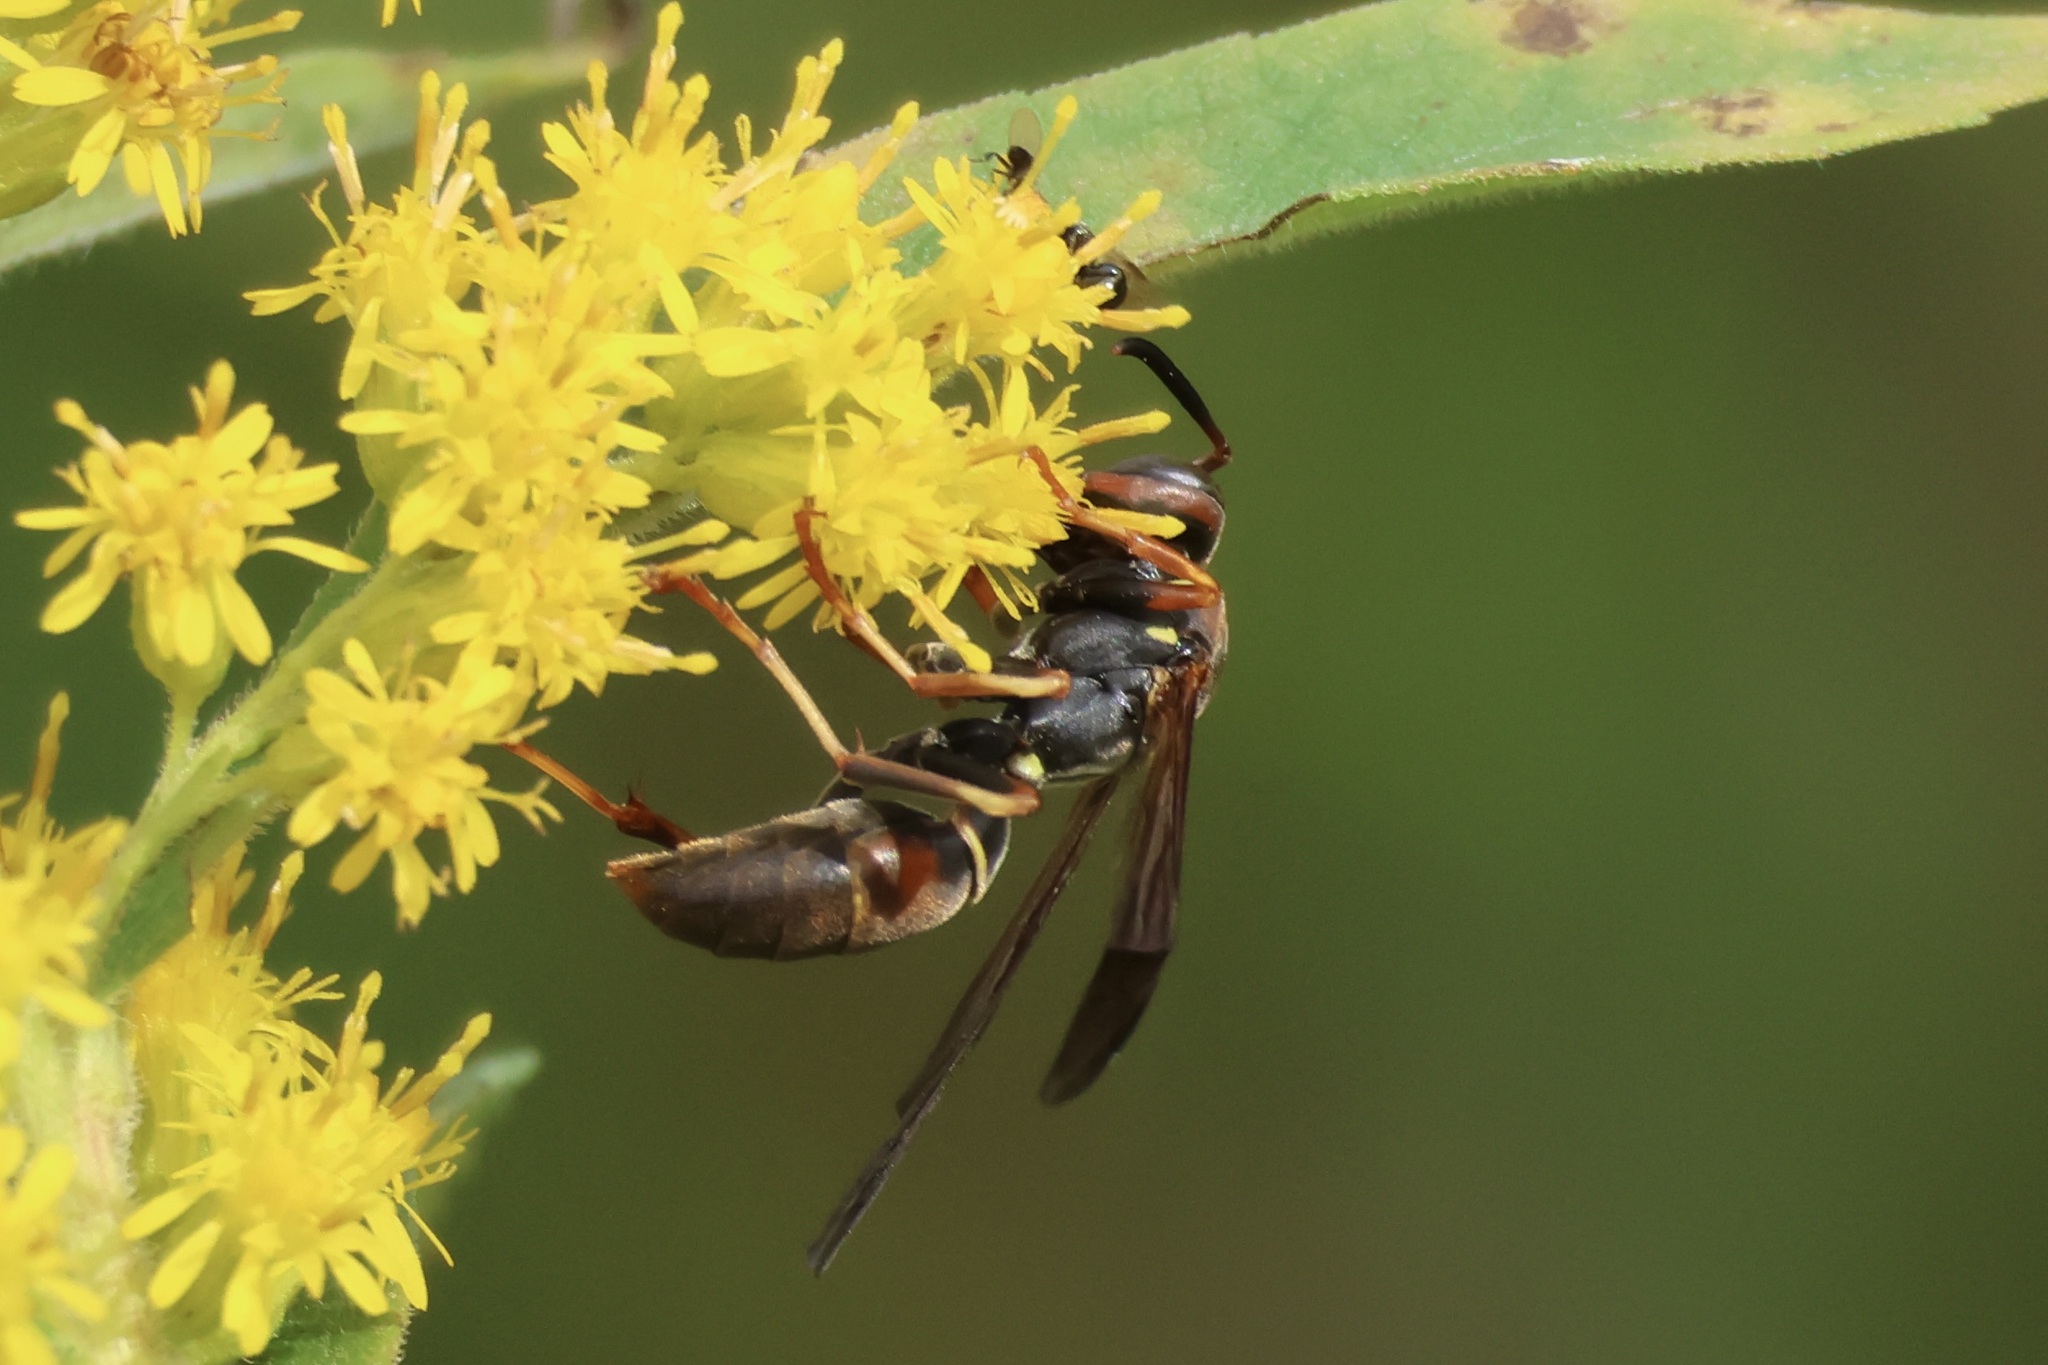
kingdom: Animalia
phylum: Arthropoda
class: Insecta
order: Hymenoptera
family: Eumenidae
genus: Polistes
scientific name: Polistes fuscatus
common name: Dark paper wasp
